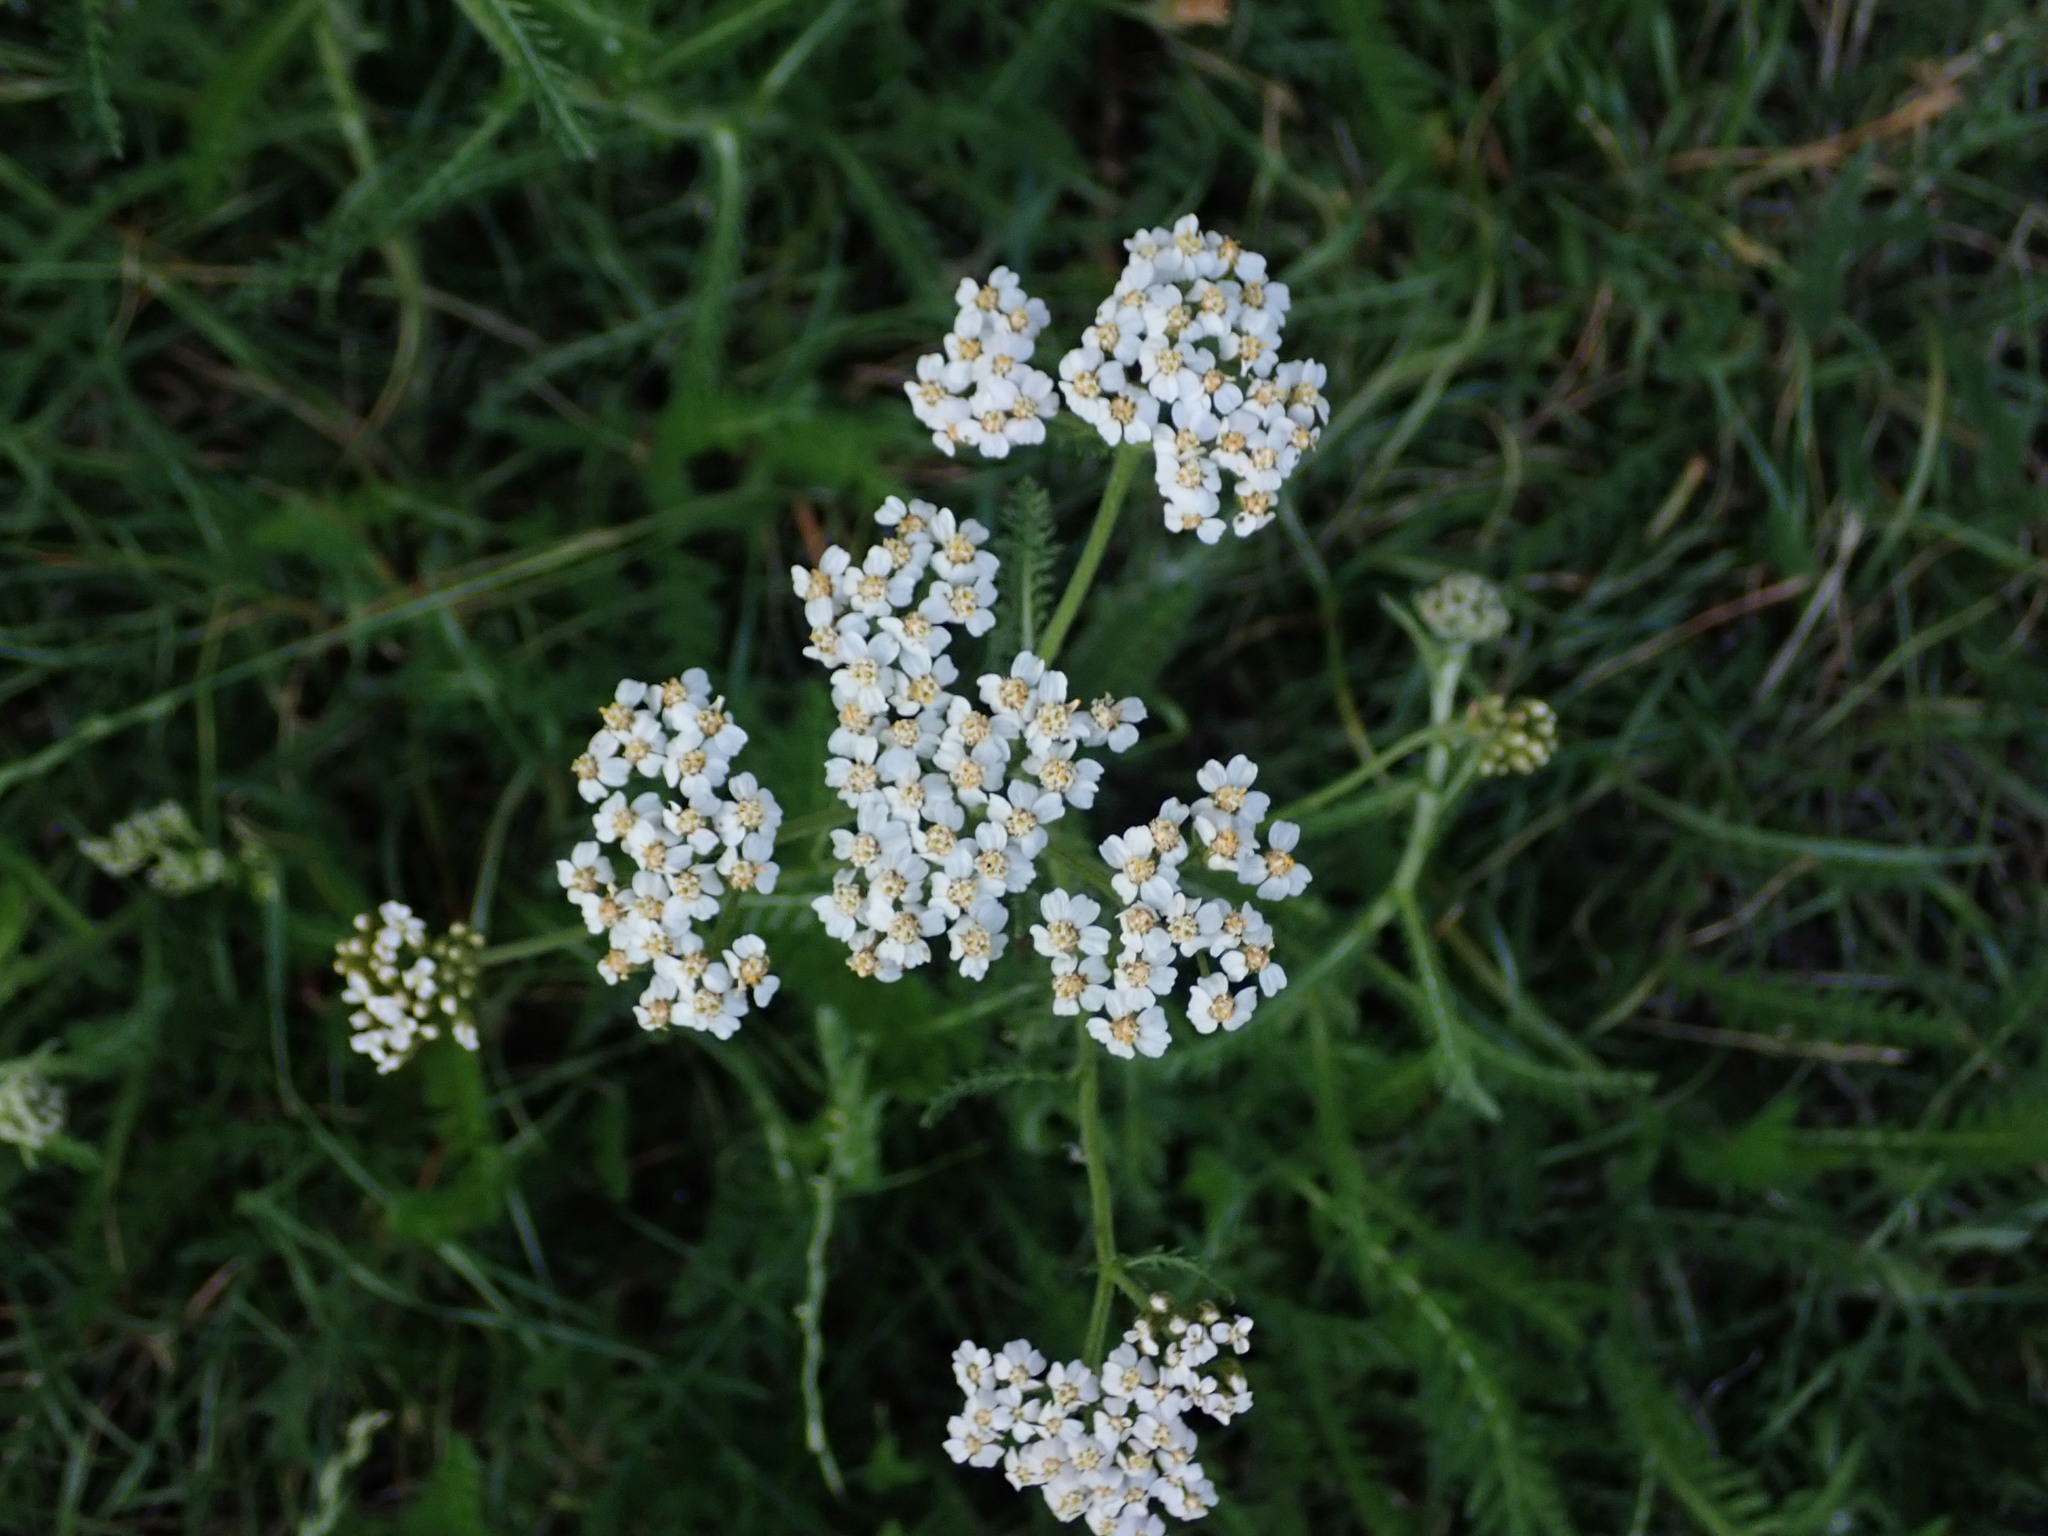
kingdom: Plantae
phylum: Tracheophyta
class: Magnoliopsida
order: Asterales
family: Asteraceae
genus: Achillea
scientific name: Achillea millefolium
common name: Yarrow
